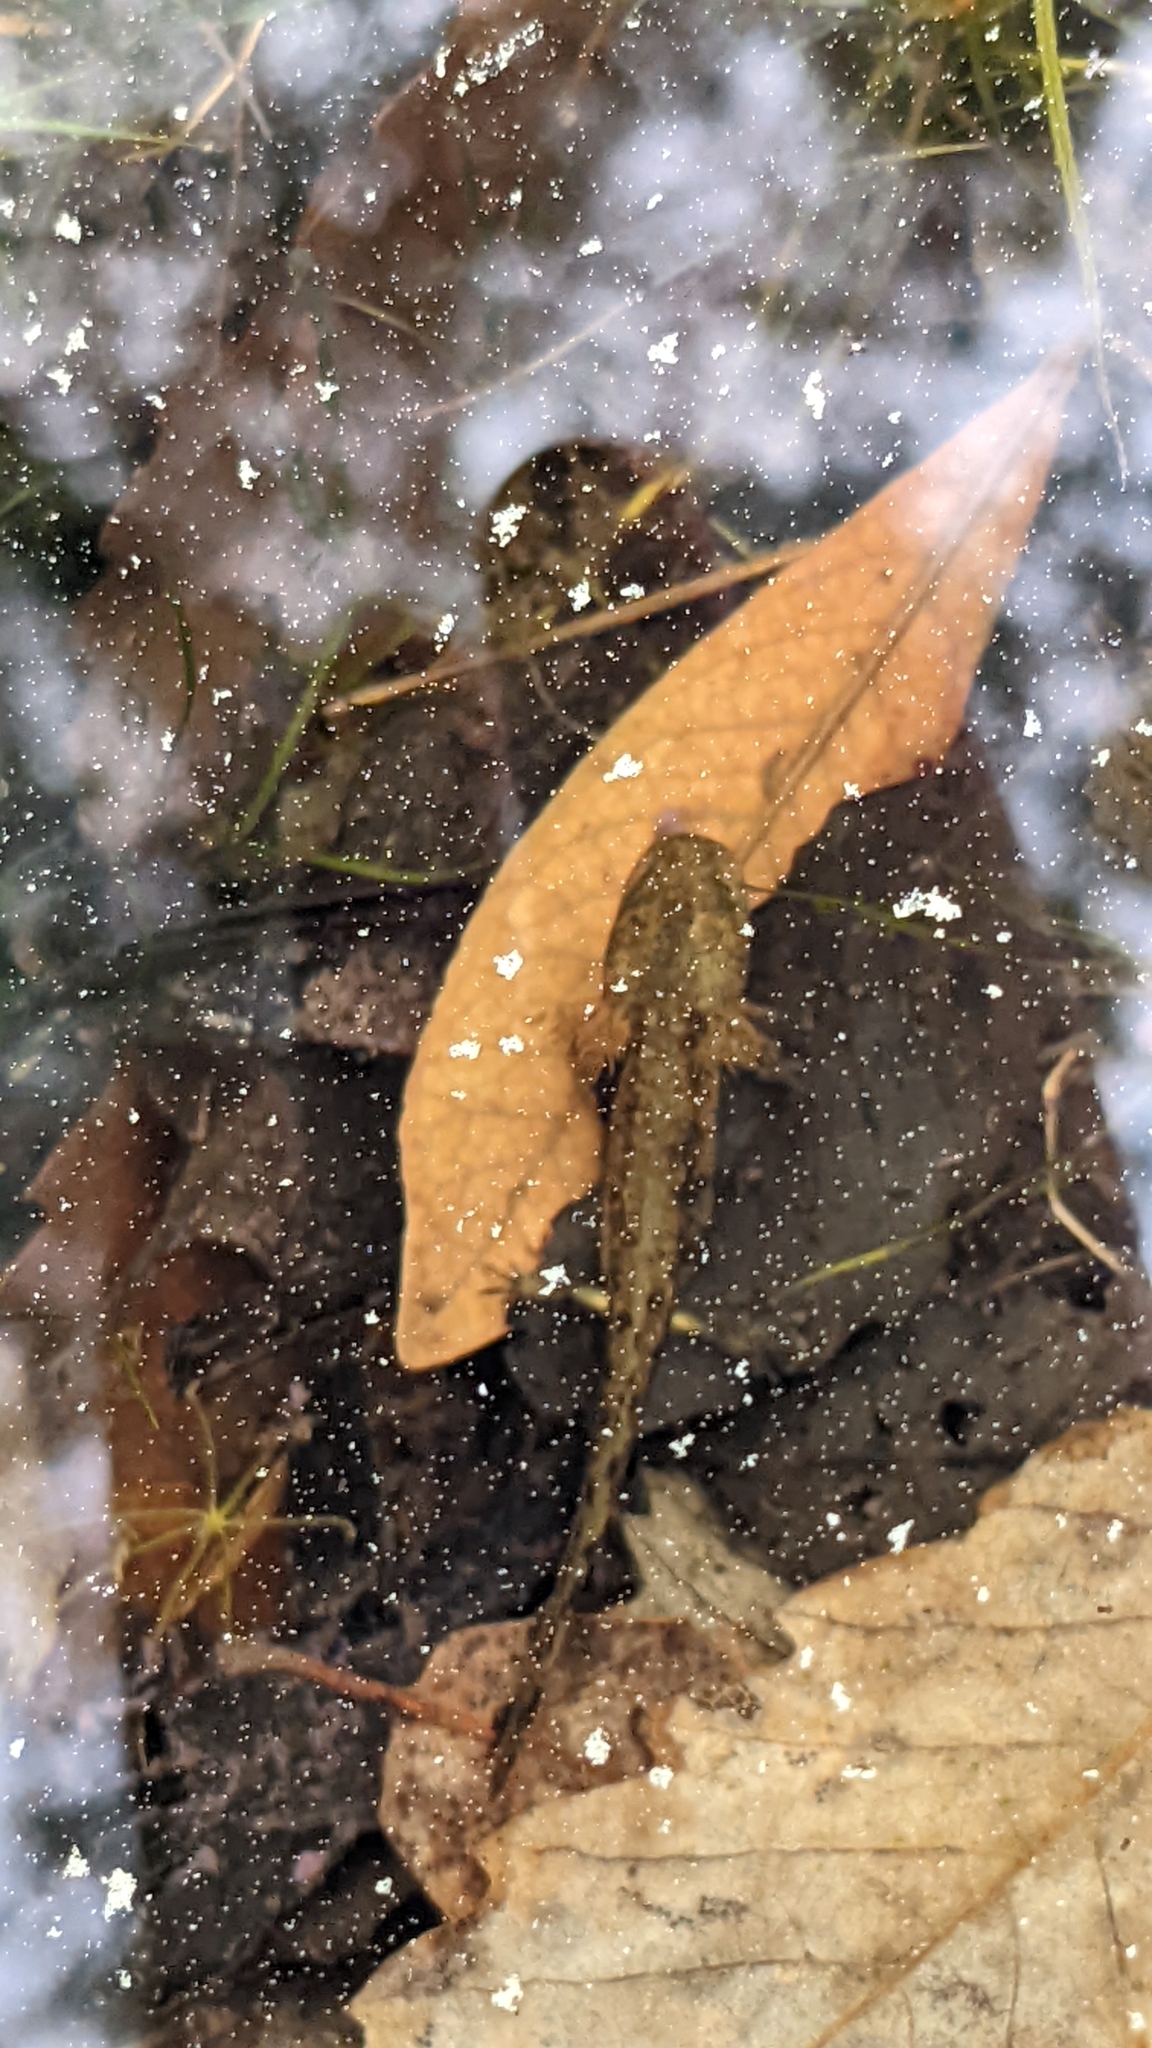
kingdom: Animalia
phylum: Chordata
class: Amphibia
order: Caudata
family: Salamandridae
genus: Salamandra
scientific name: Salamandra salamandra
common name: Fire salamander
